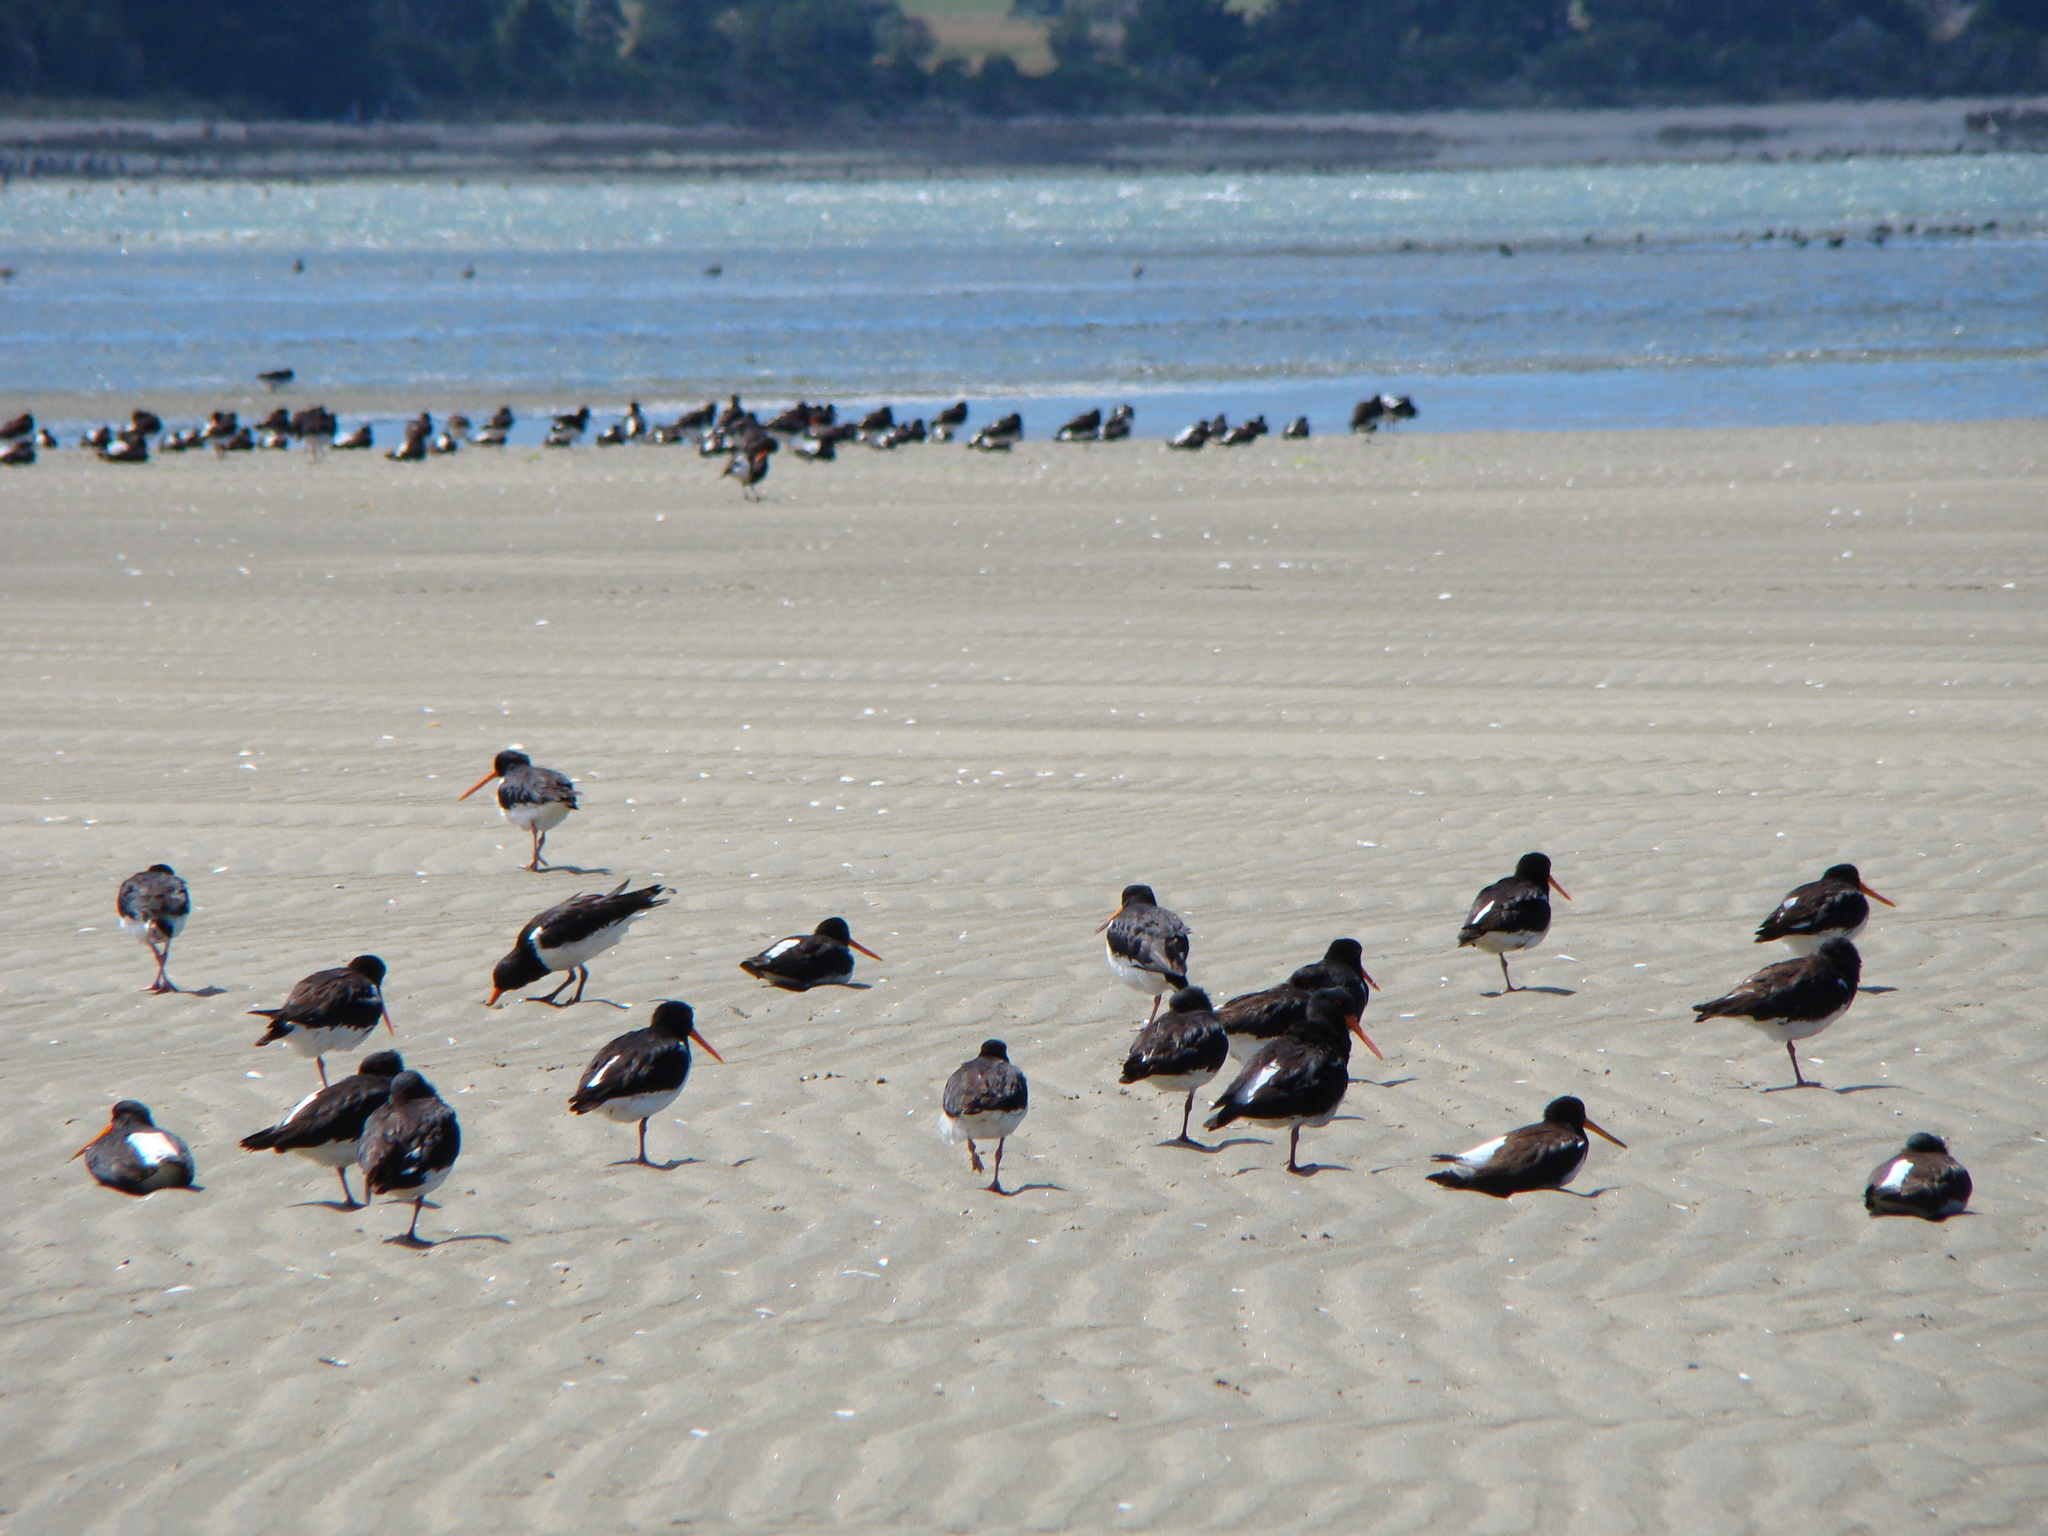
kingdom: Animalia
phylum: Chordata
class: Aves
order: Charadriiformes
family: Haematopodidae
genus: Haematopus
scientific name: Haematopus finschi
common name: South island oystercatcher
